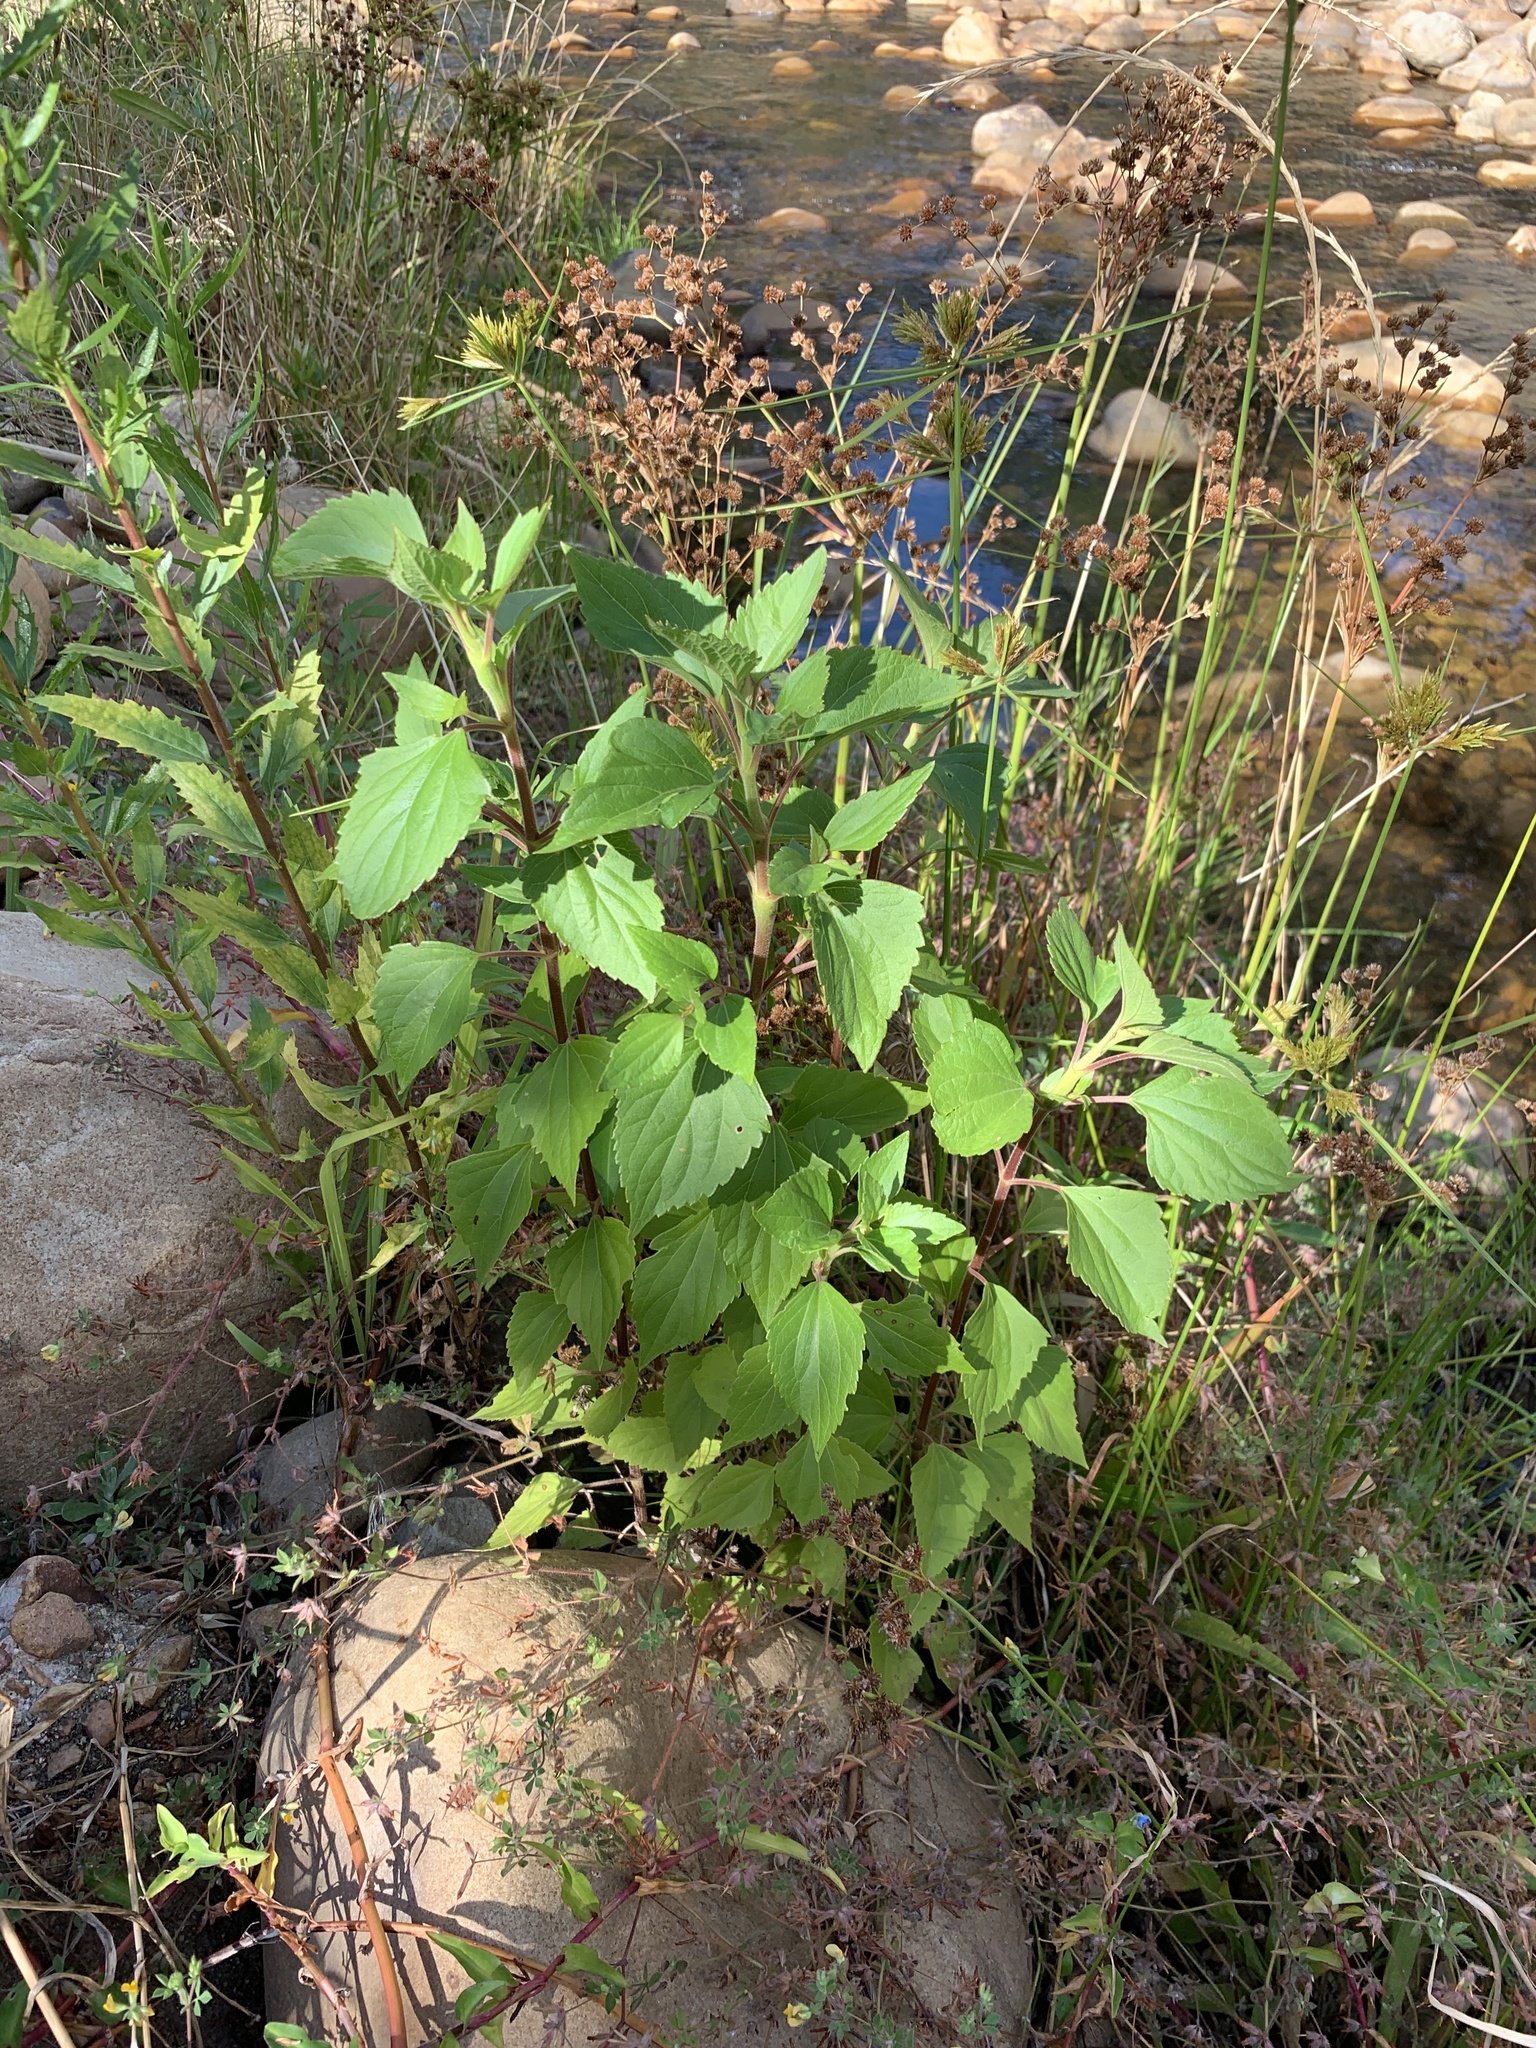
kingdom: Plantae
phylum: Tracheophyta
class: Magnoliopsida
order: Asterales
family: Asteraceae
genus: Ageratina
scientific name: Ageratina adenophora
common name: Sticky snakeroot
